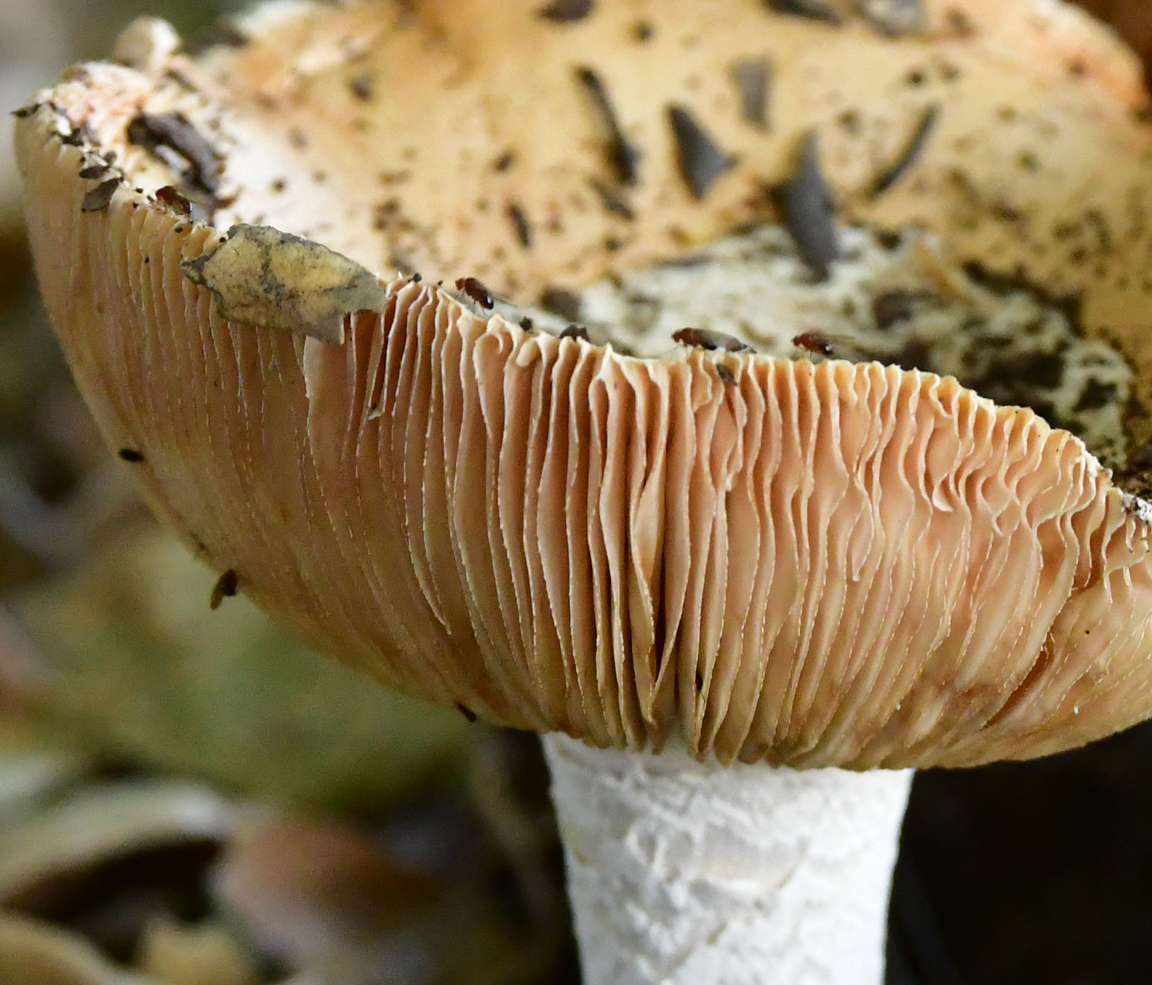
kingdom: Fungi
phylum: Basidiomycota
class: Agaricomycetes
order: Agaricales
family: Amanitaceae
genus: Amanita
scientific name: Amanita velosa
